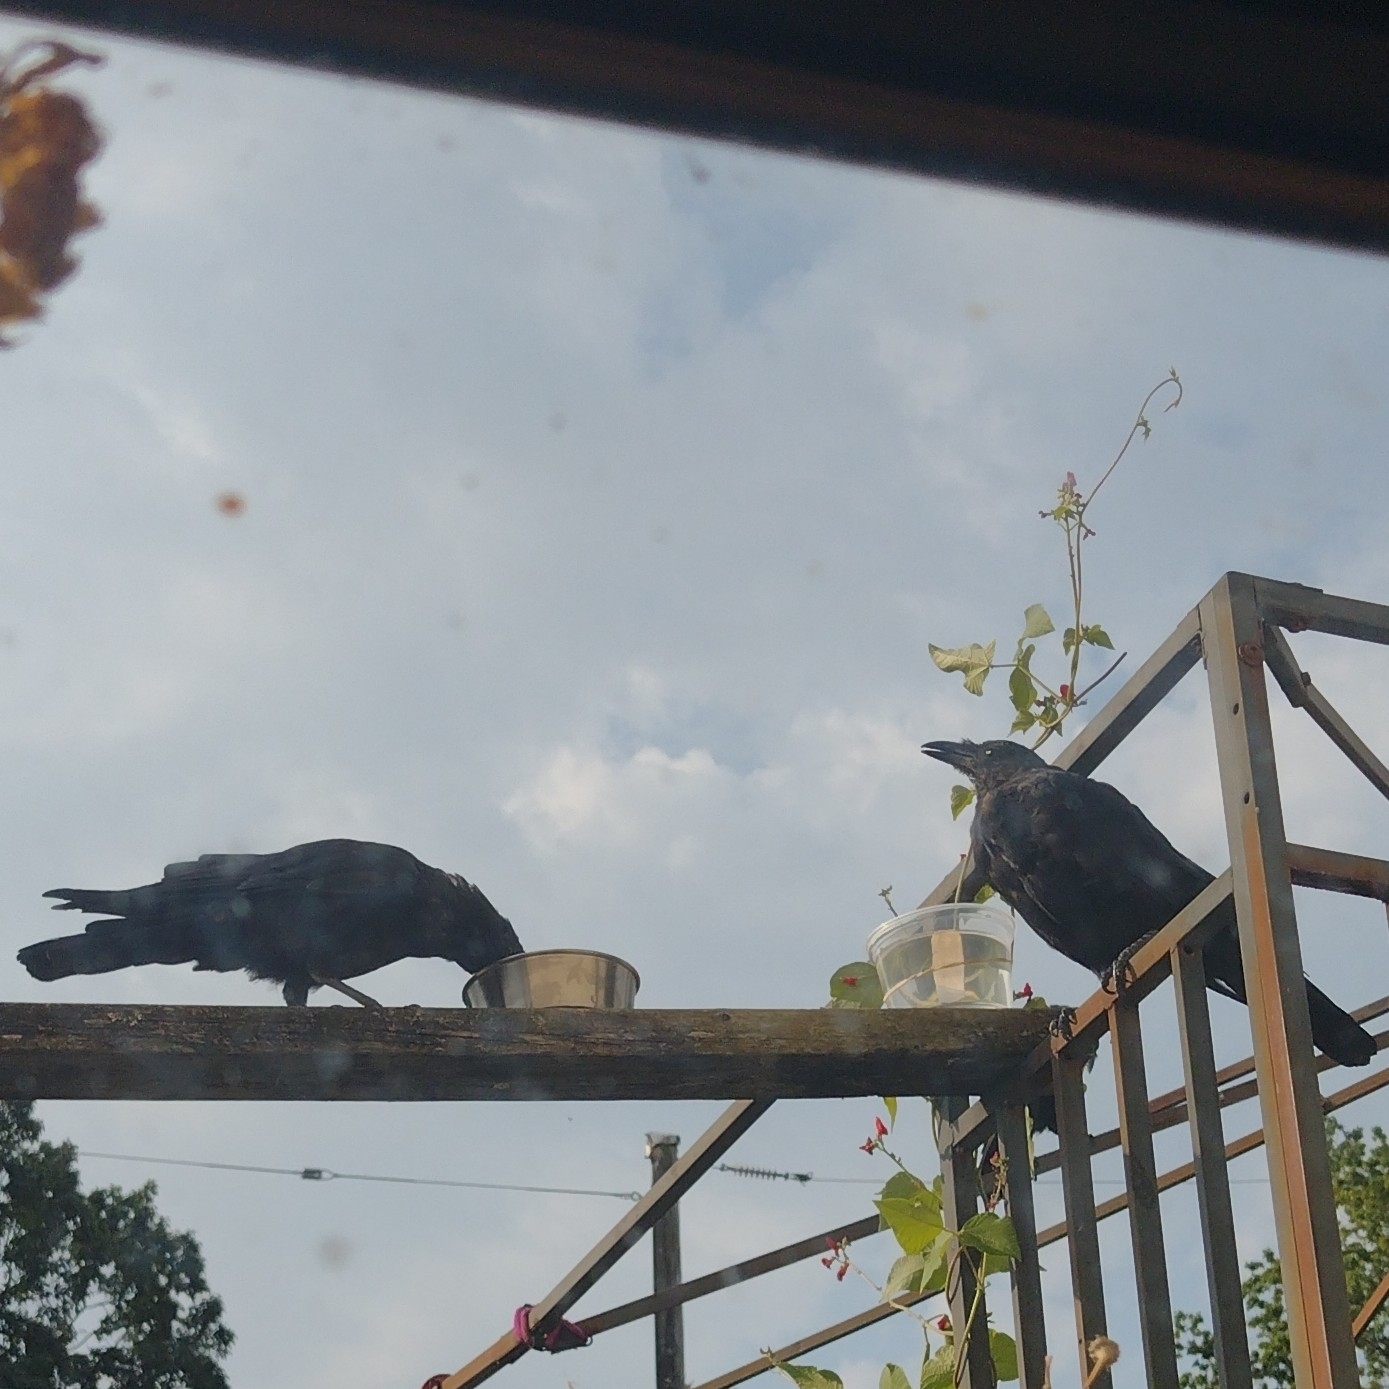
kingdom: Animalia
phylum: Chordata
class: Aves
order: Passeriformes
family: Corvidae
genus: Corvus
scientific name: Corvus brachyrhynchos
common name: American crow
